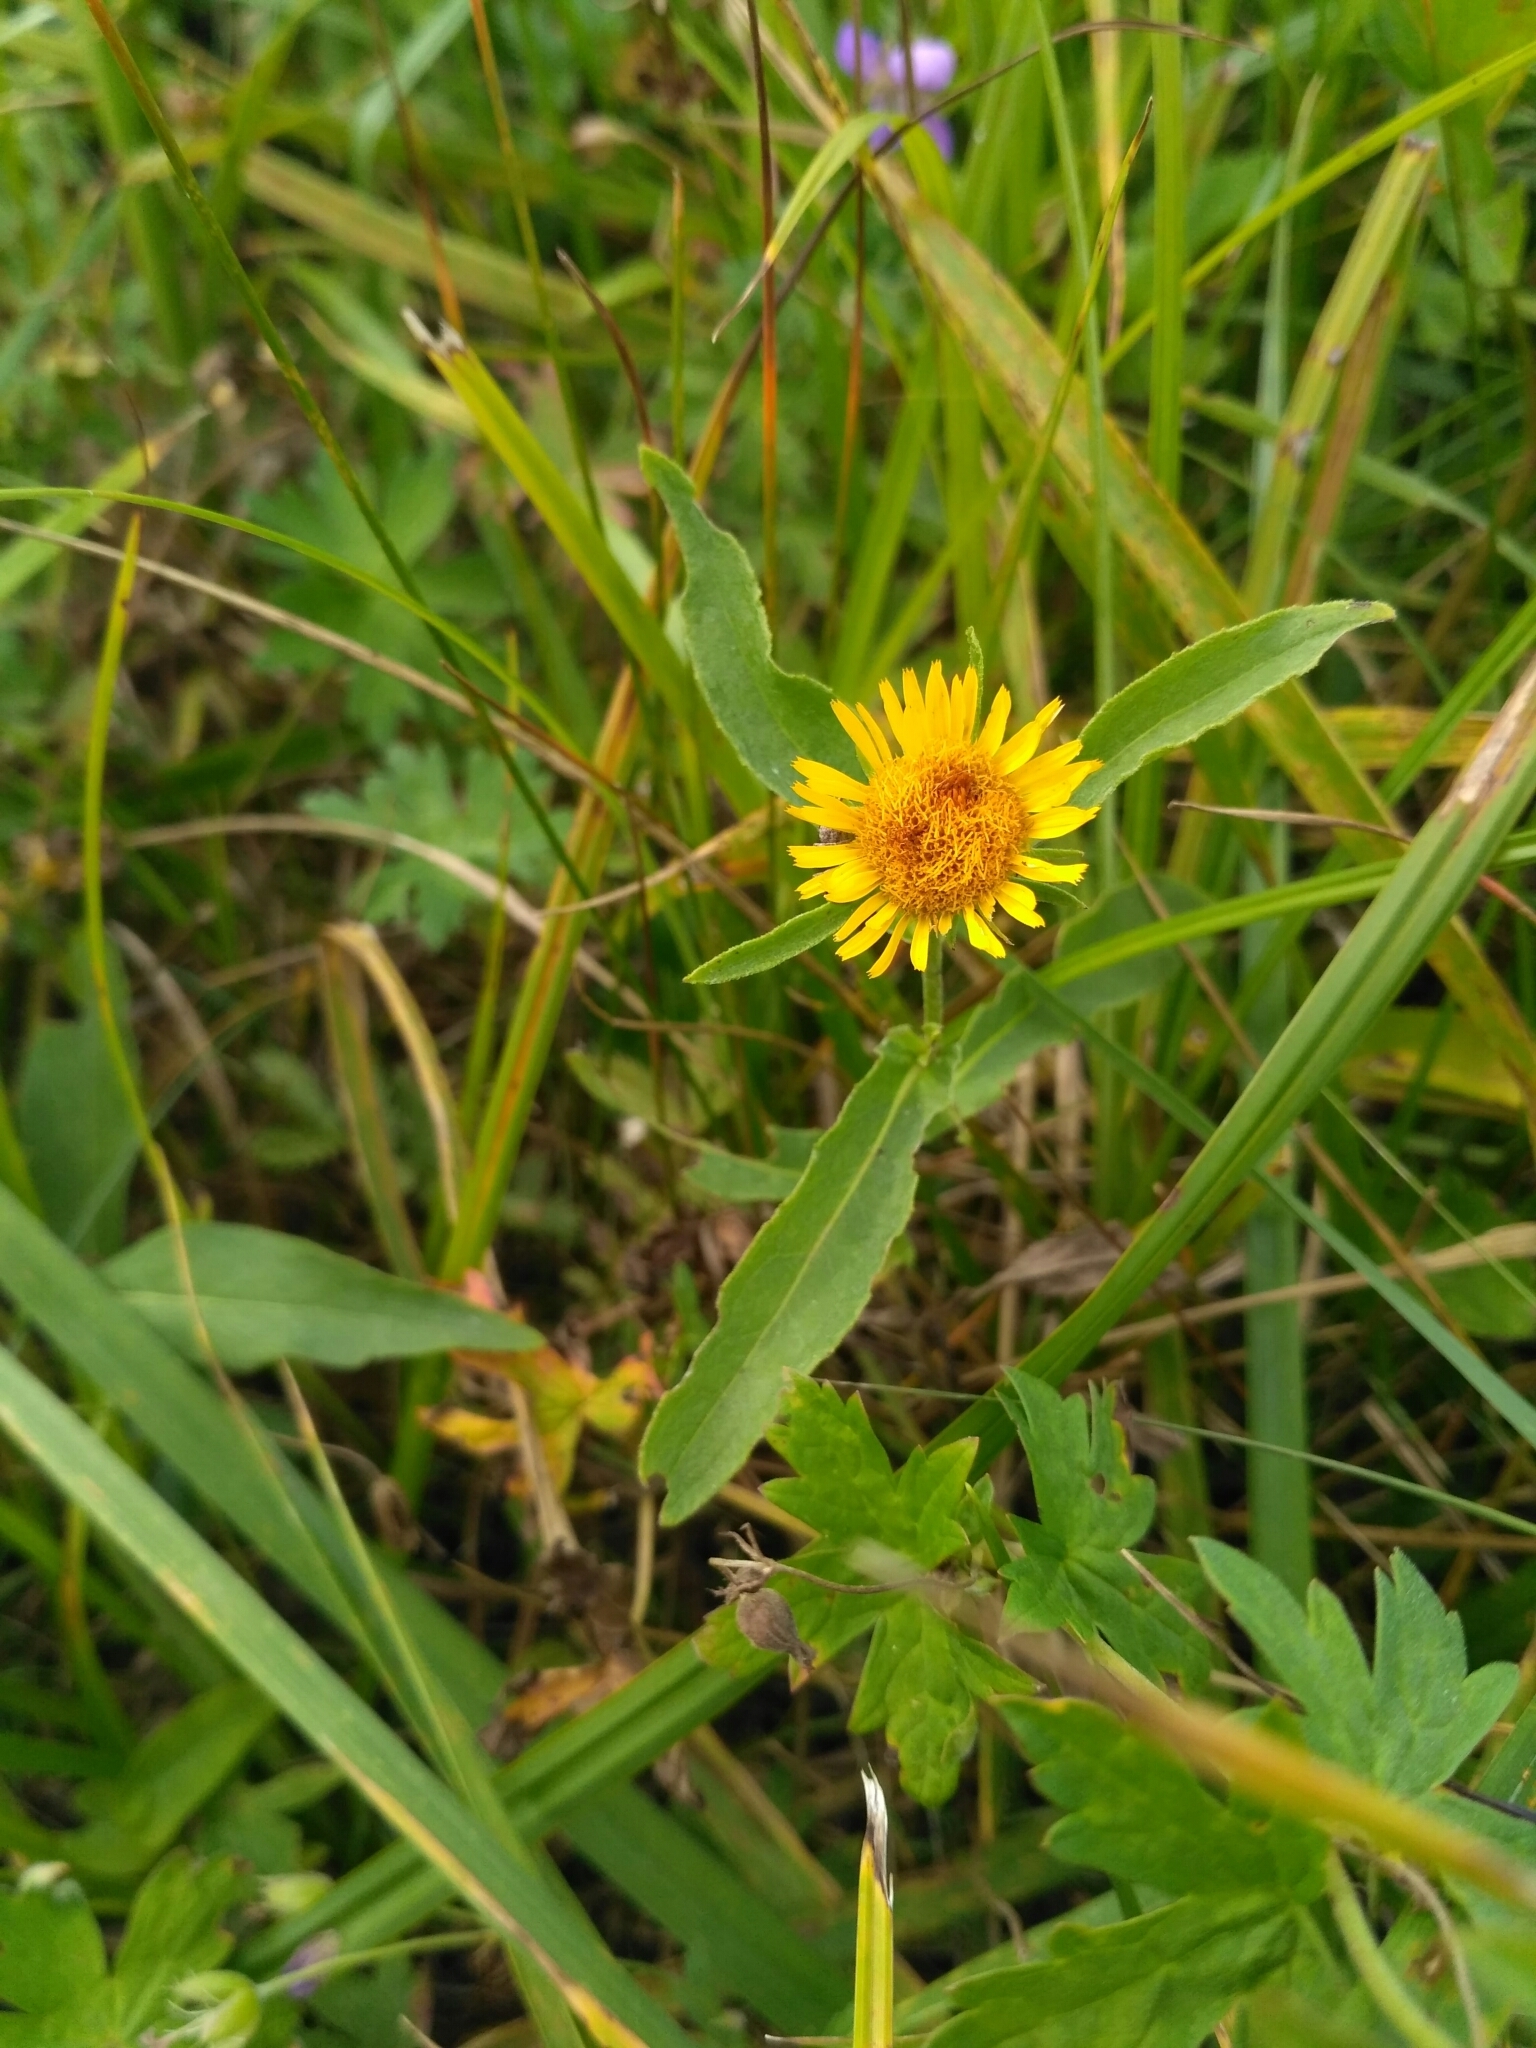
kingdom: Plantae
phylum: Tracheophyta
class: Magnoliopsida
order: Asterales
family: Asteraceae
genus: Pentanema
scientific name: Pentanema britannicum
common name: British elecampane
